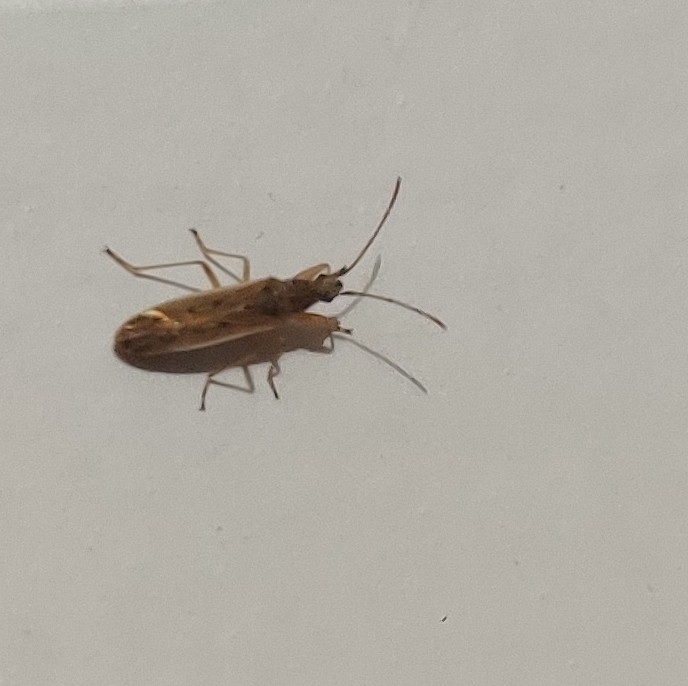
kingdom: Animalia
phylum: Arthropoda
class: Insecta
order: Hemiptera
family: Rhyparochromidae
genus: Paromius
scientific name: Paromius gracilis
